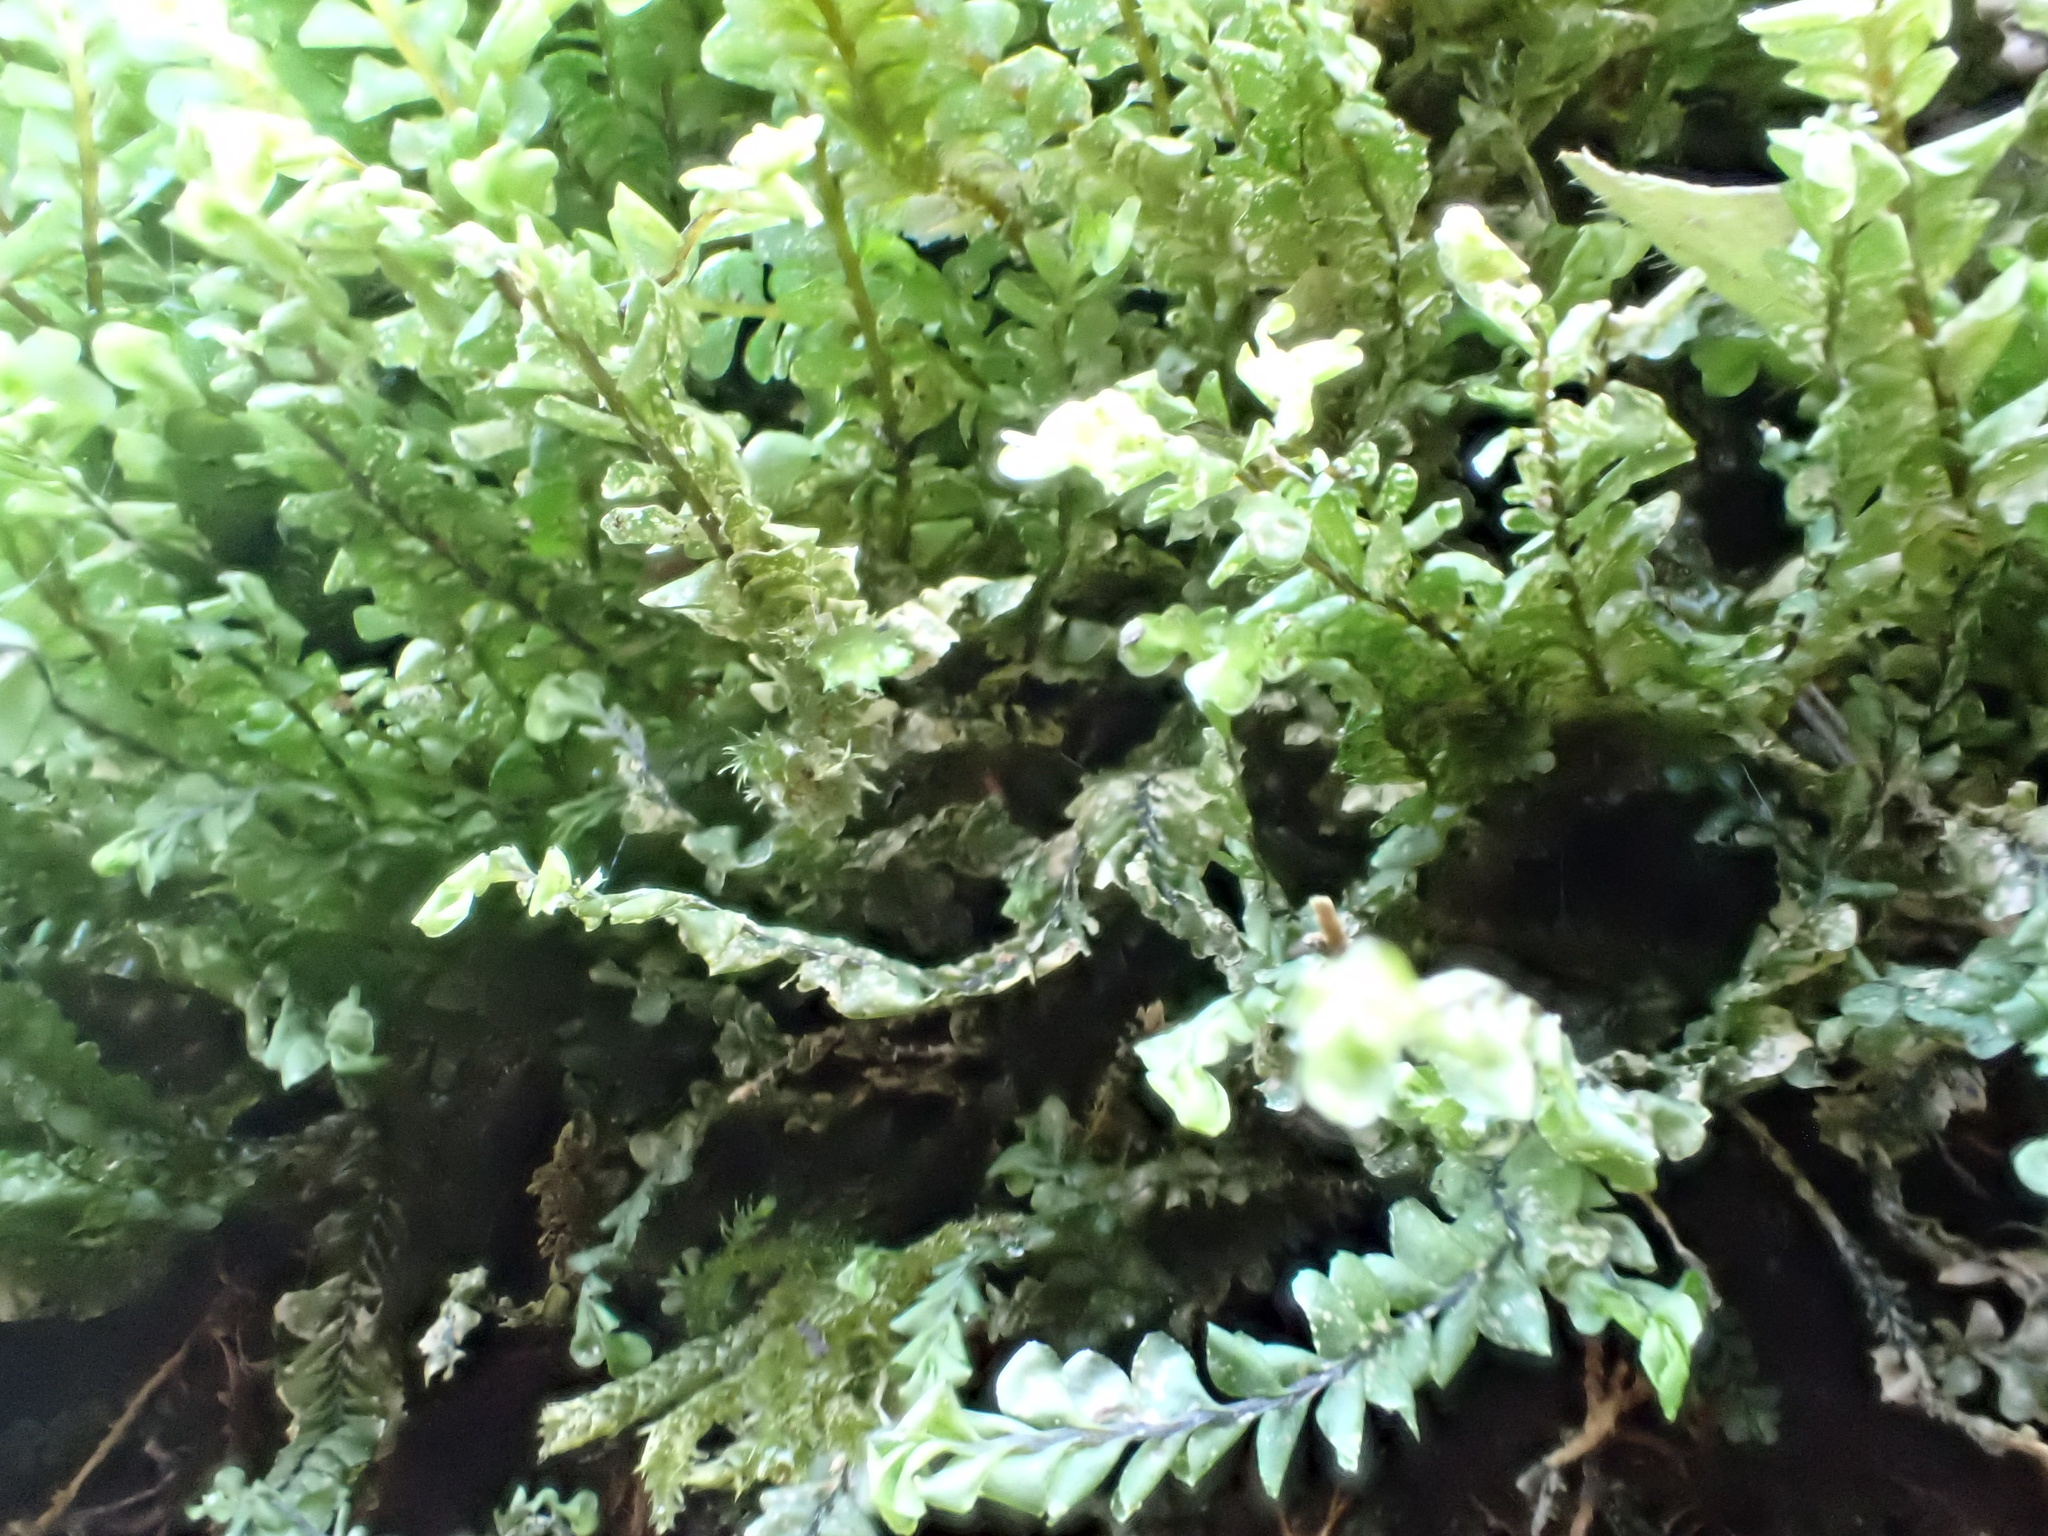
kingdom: Plantae
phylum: Marchantiophyta
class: Jungermanniopsida
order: Jungermanniales
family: Plagiochilaceae
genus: Plagiochila
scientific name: Plagiochila asplenioides
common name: Greater featherwort
